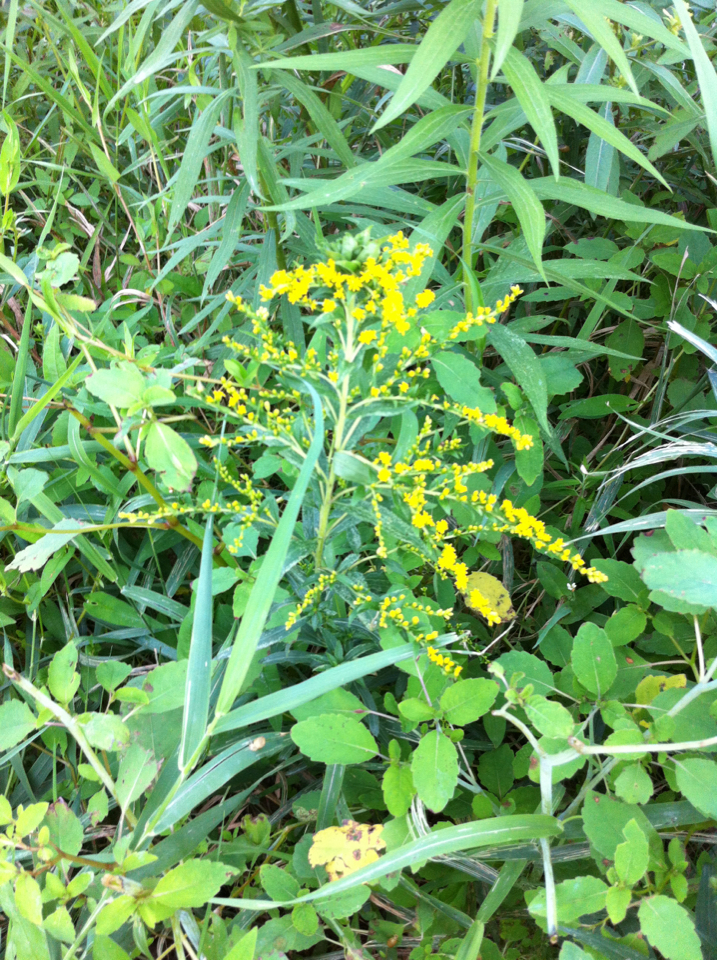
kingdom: Plantae
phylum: Tracheophyta
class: Magnoliopsida
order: Asterales
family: Asteraceae
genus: Solidago
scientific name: Solidago
